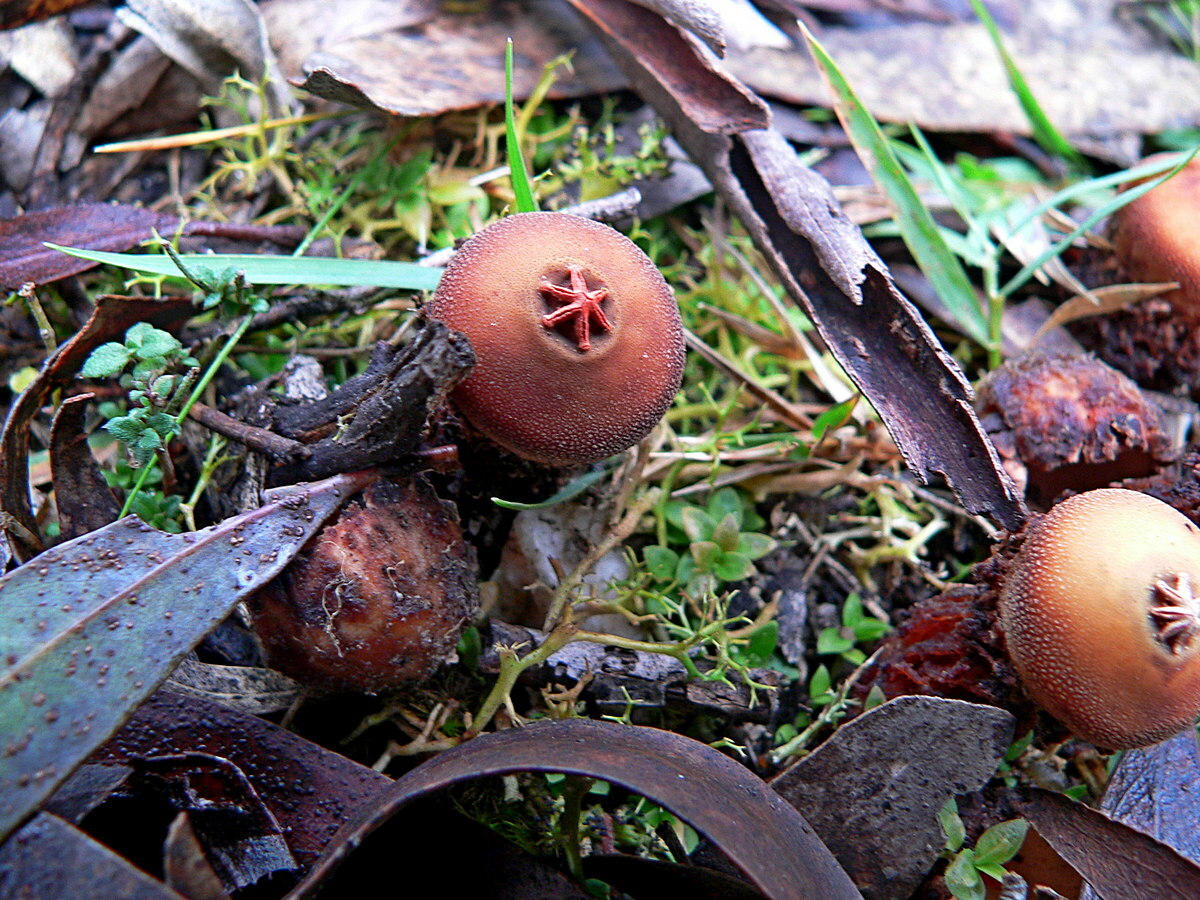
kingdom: Fungi
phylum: Basidiomycota
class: Agaricomycetes
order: Boletales
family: Calostomataceae
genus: Calostoma
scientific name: Calostoma fuscum
